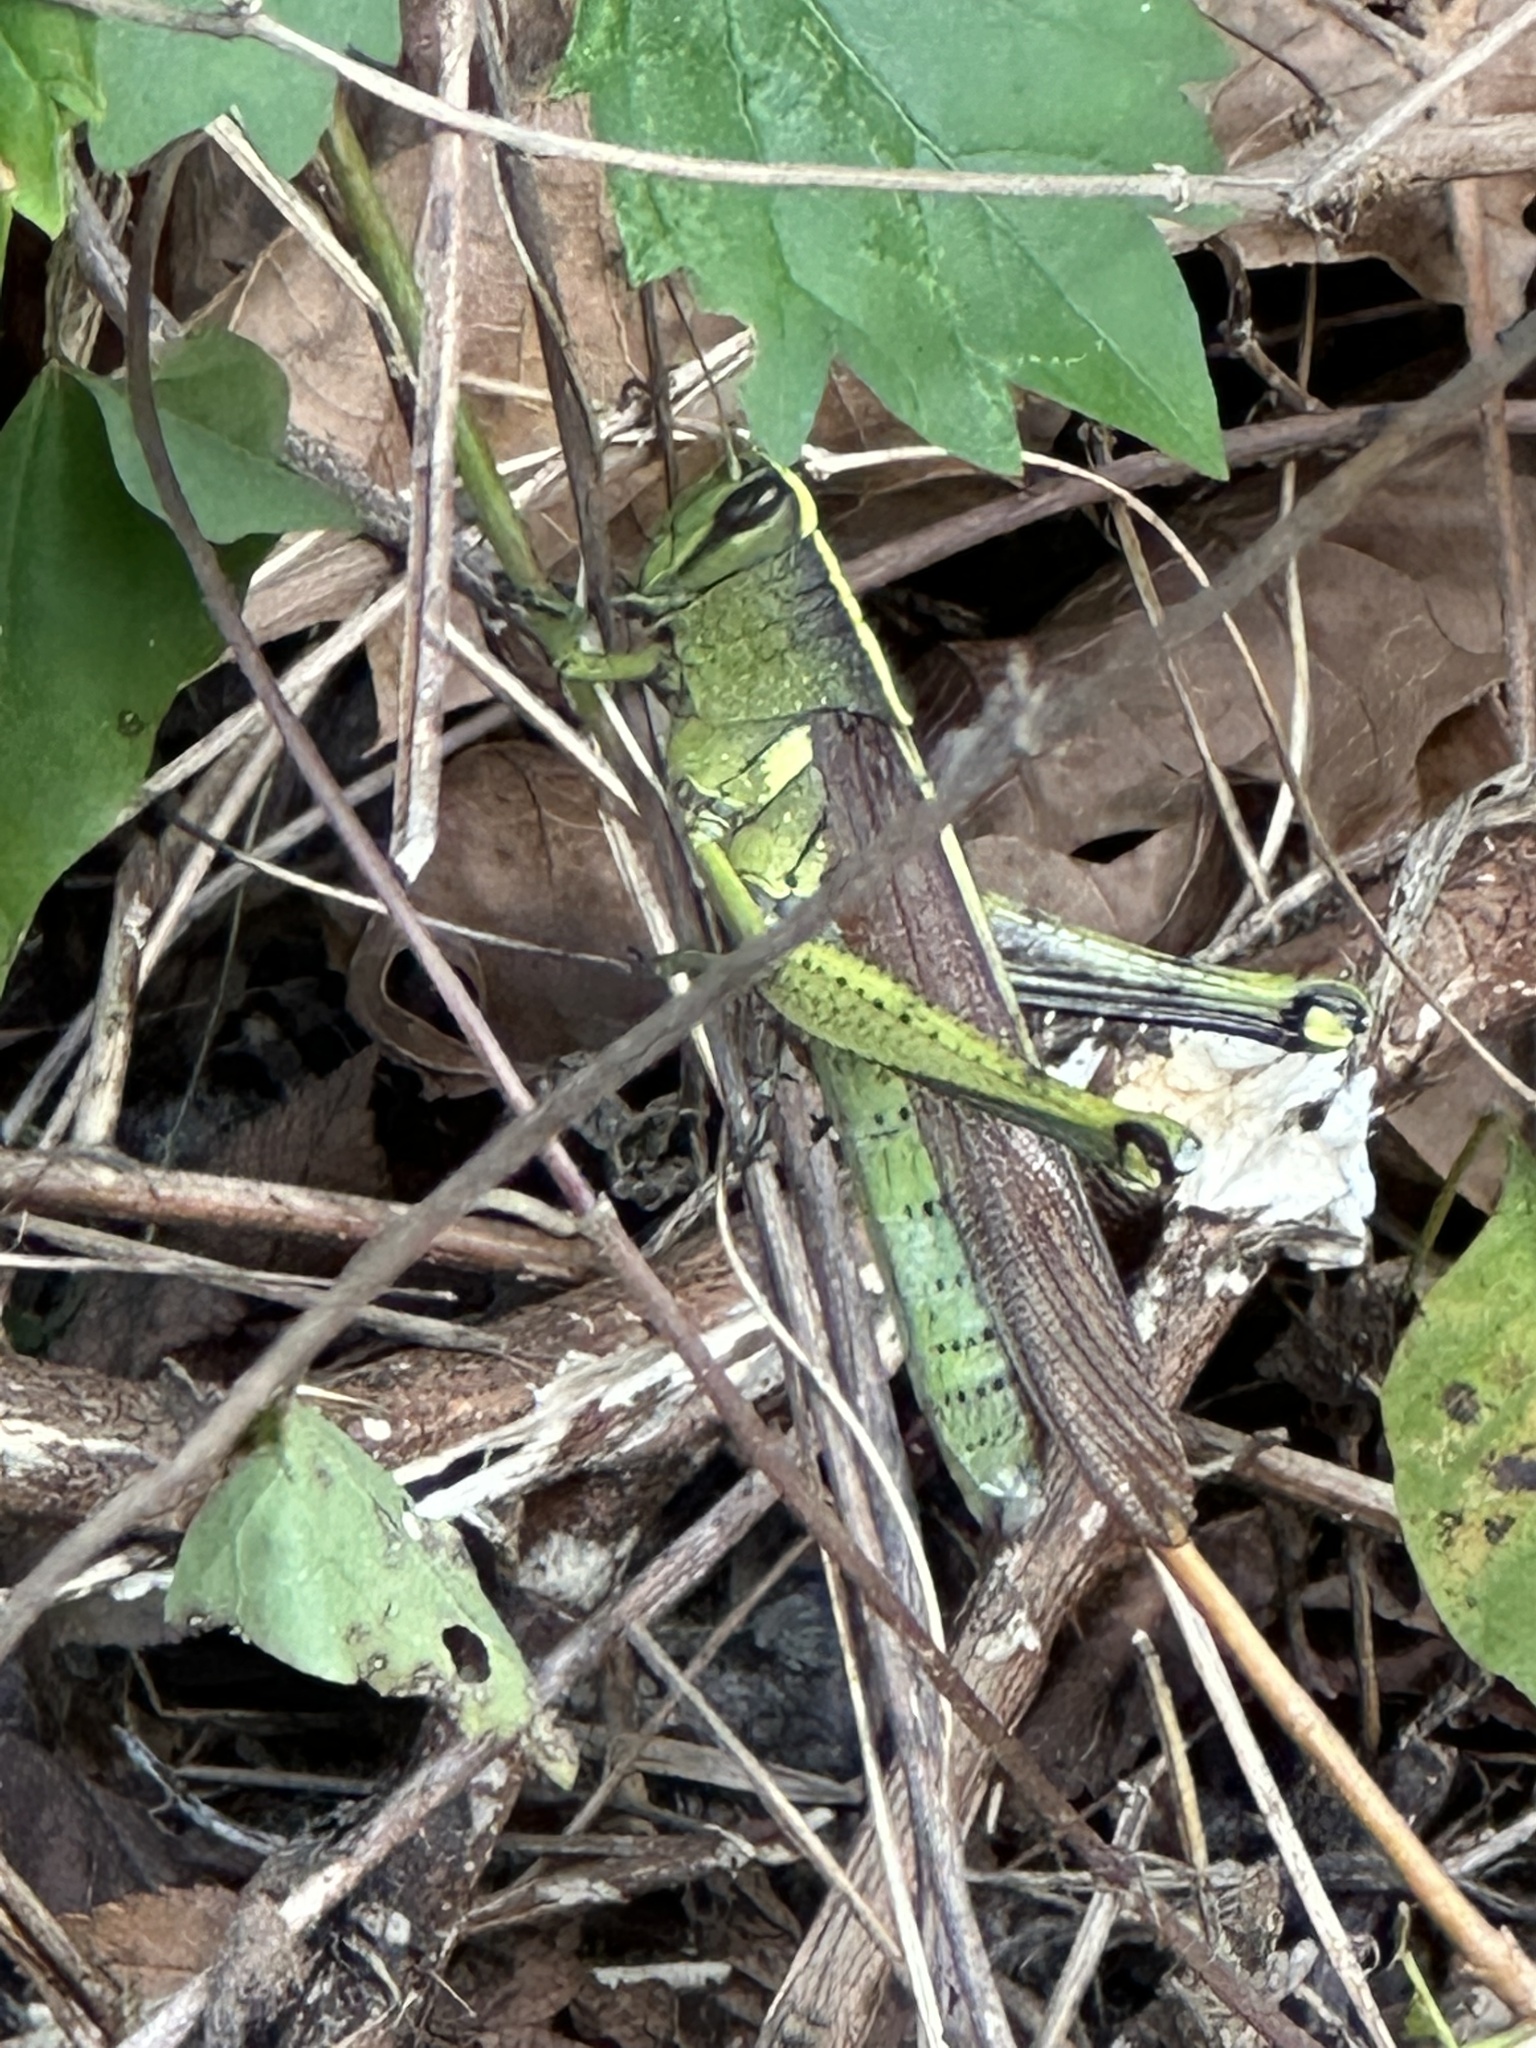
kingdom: Animalia
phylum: Arthropoda
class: Insecta
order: Orthoptera
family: Acrididae
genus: Schistocerca
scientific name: Schistocerca obscura
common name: Obscure bird grasshopper
